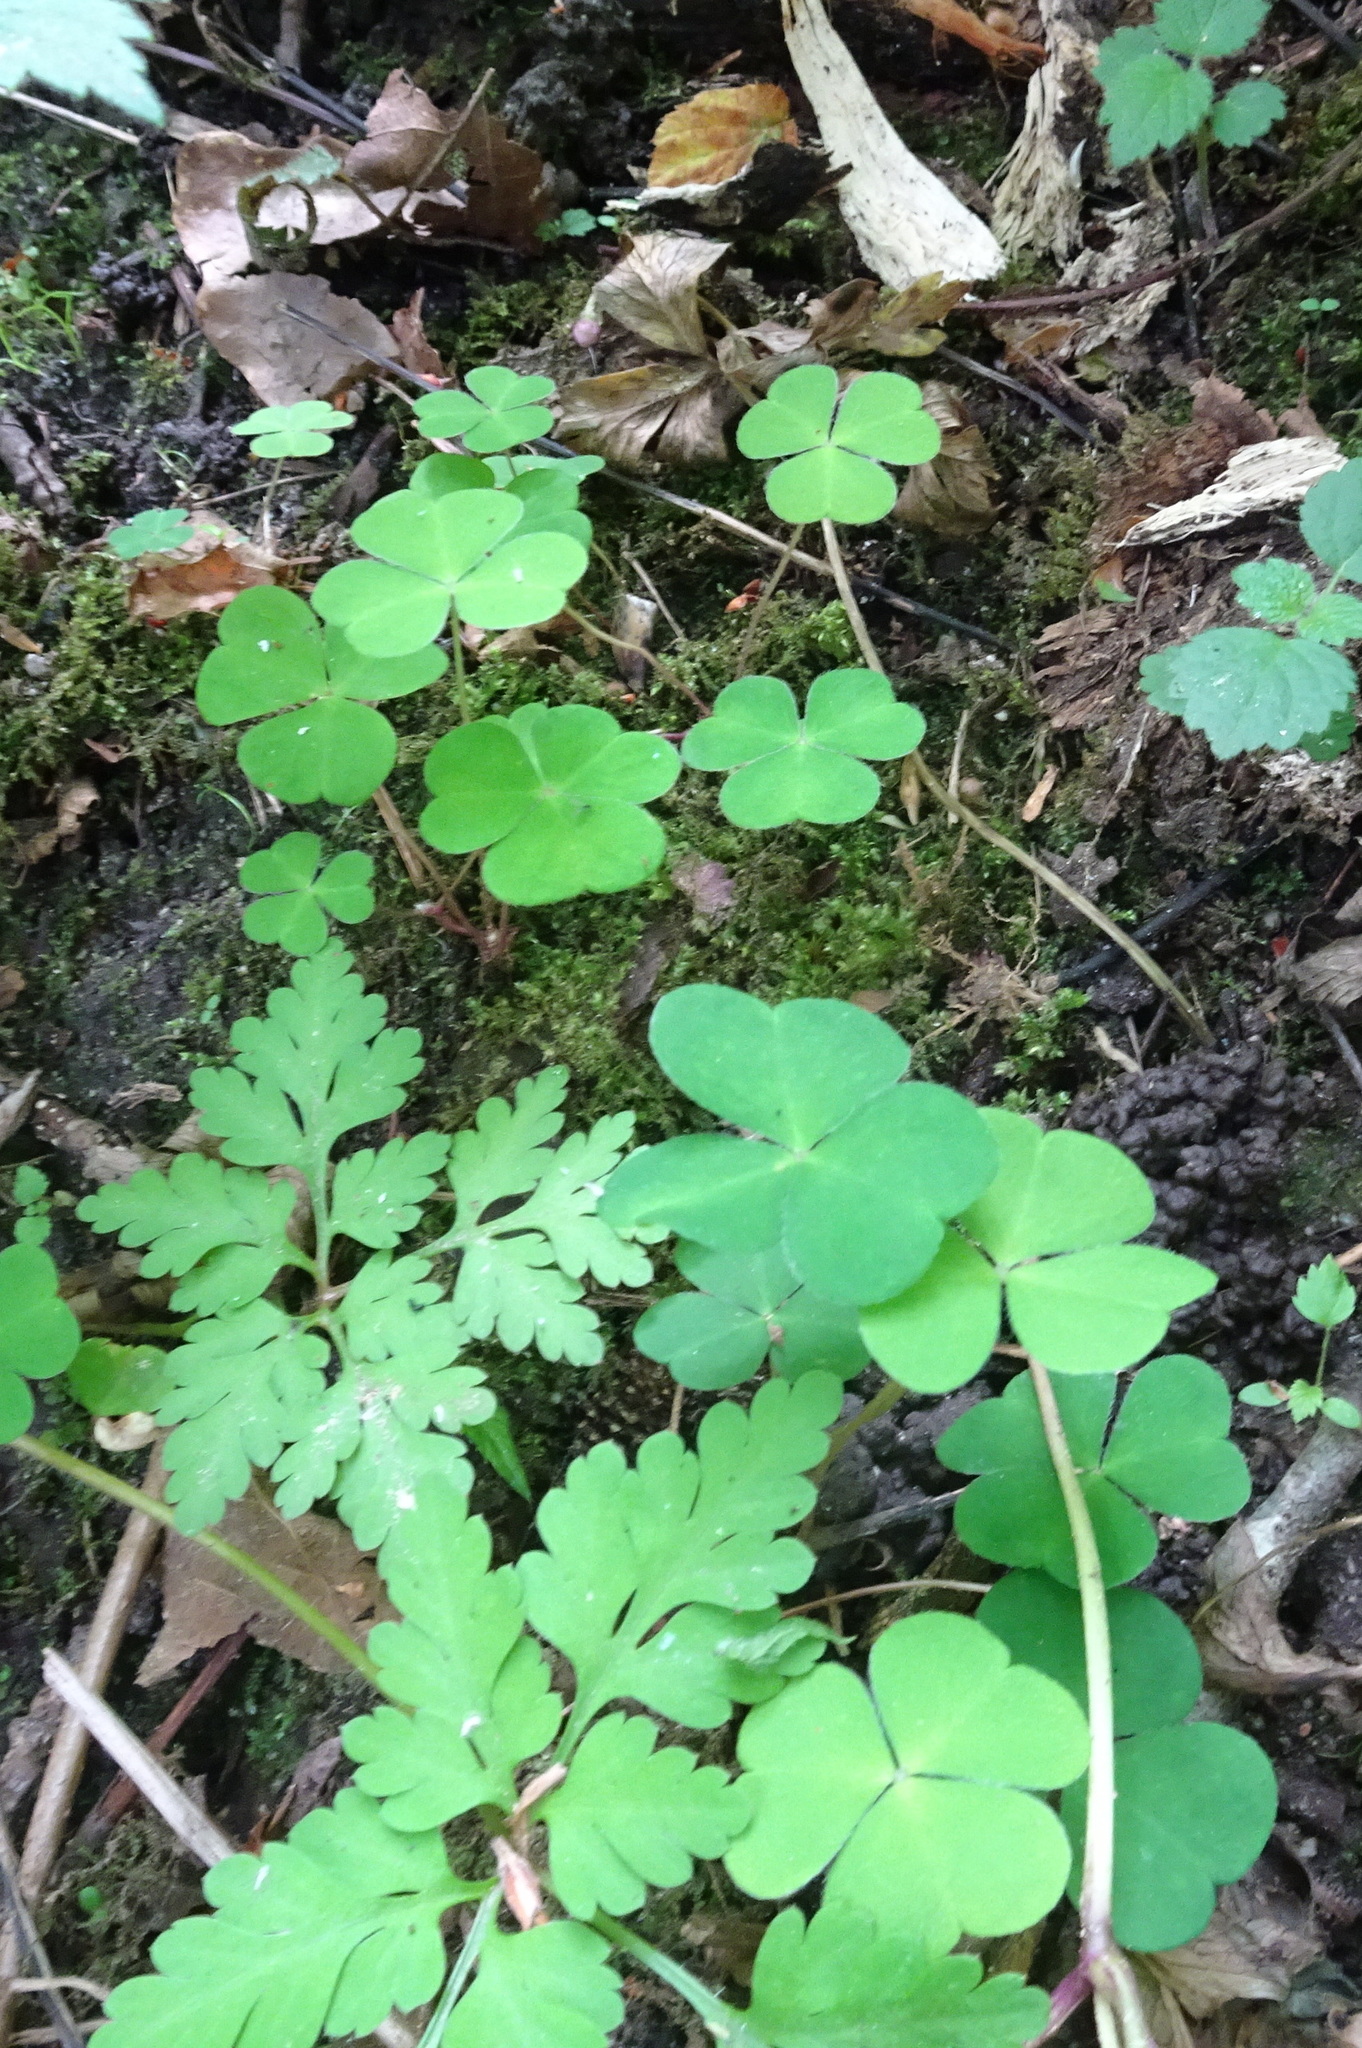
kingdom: Plantae
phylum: Tracheophyta
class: Magnoliopsida
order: Oxalidales
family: Oxalidaceae
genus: Oxalis
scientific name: Oxalis acetosella
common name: Wood-sorrel
